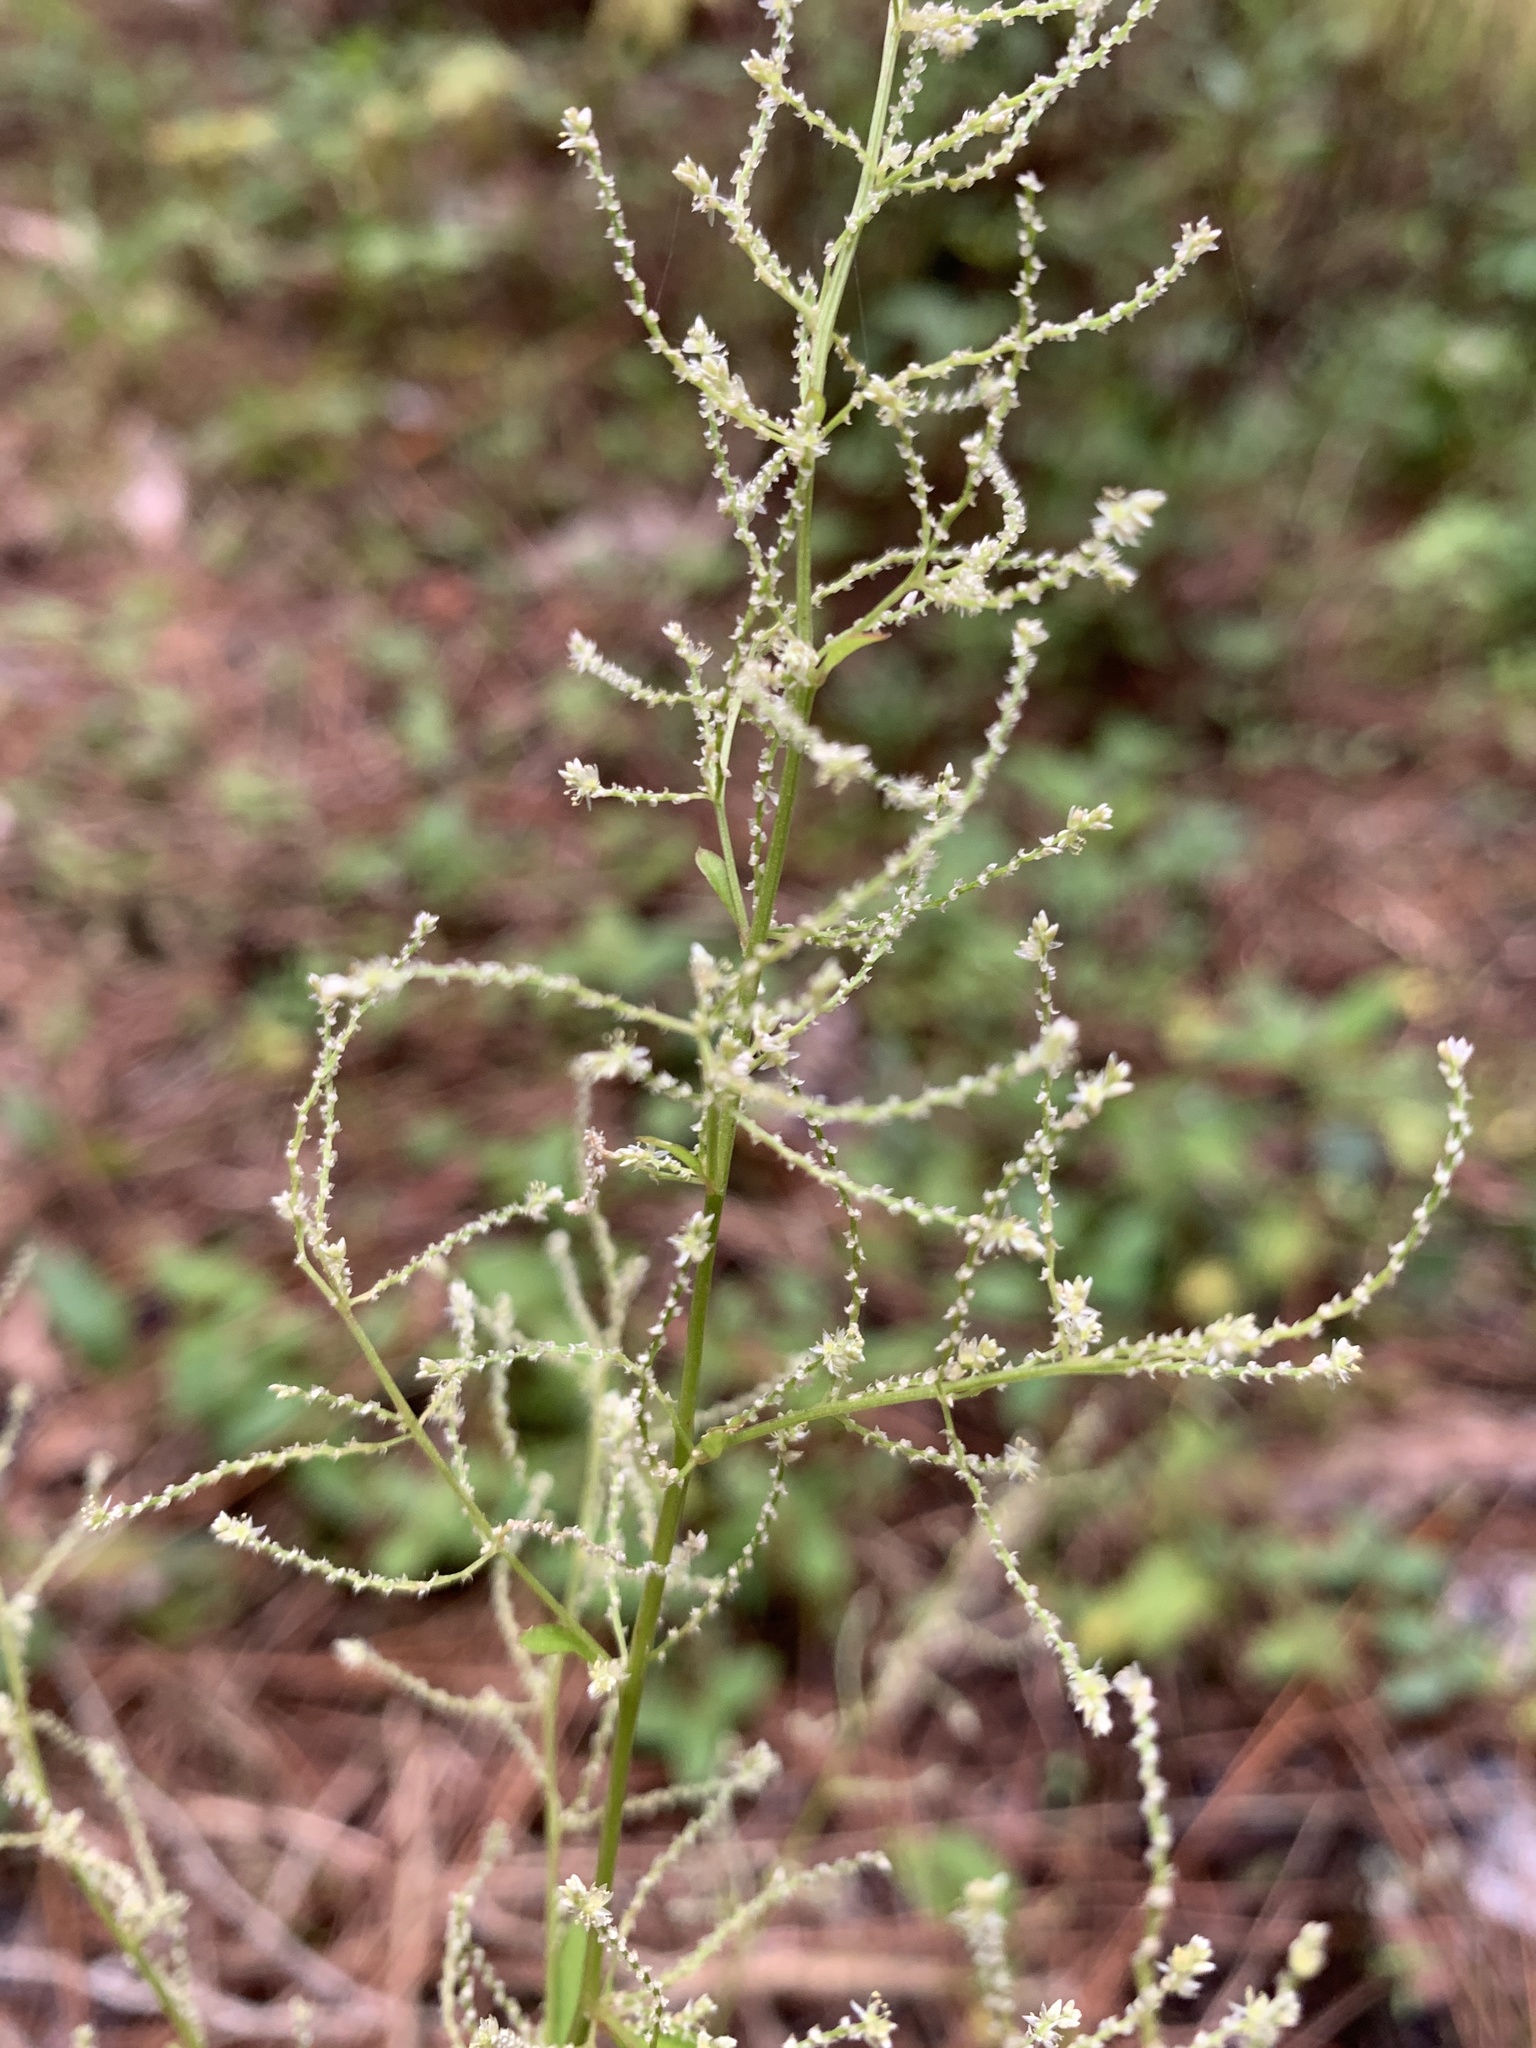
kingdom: Plantae
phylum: Tracheophyta
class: Magnoliopsida
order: Caryophyllales
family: Amaranthaceae
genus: Iresine
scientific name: Iresine diffusa
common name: Juba's-bush
